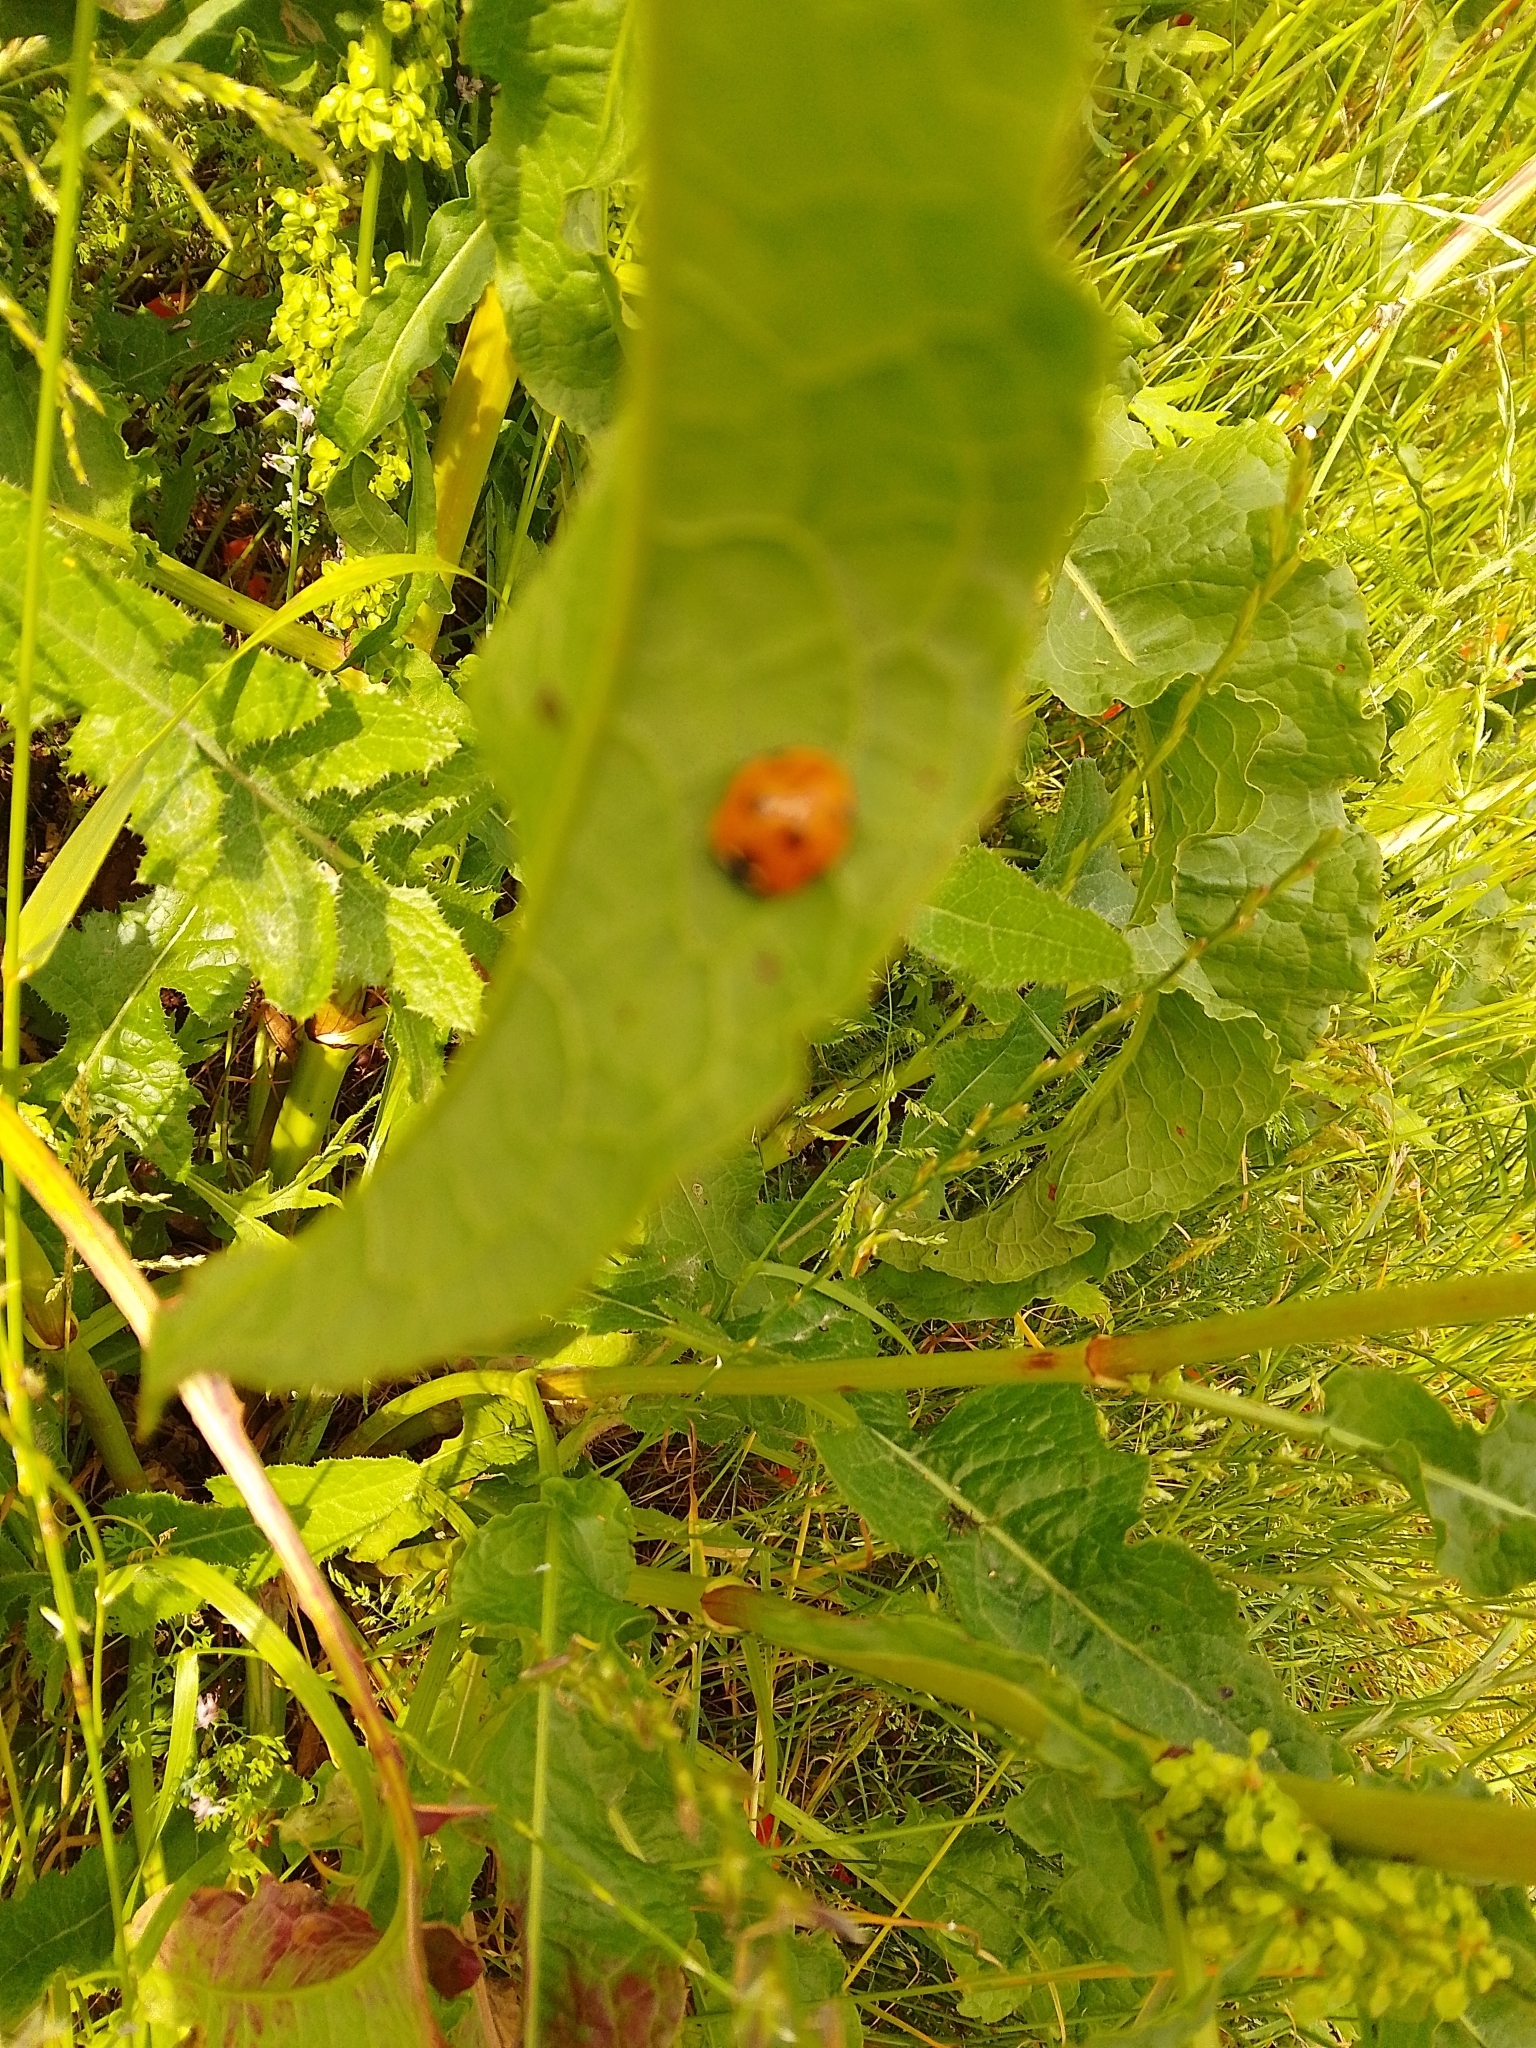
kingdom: Animalia
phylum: Arthropoda
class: Insecta
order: Coleoptera
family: Coccinellidae
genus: Coccinella
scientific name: Coccinella septempunctata
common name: Sevenspotted lady beetle
